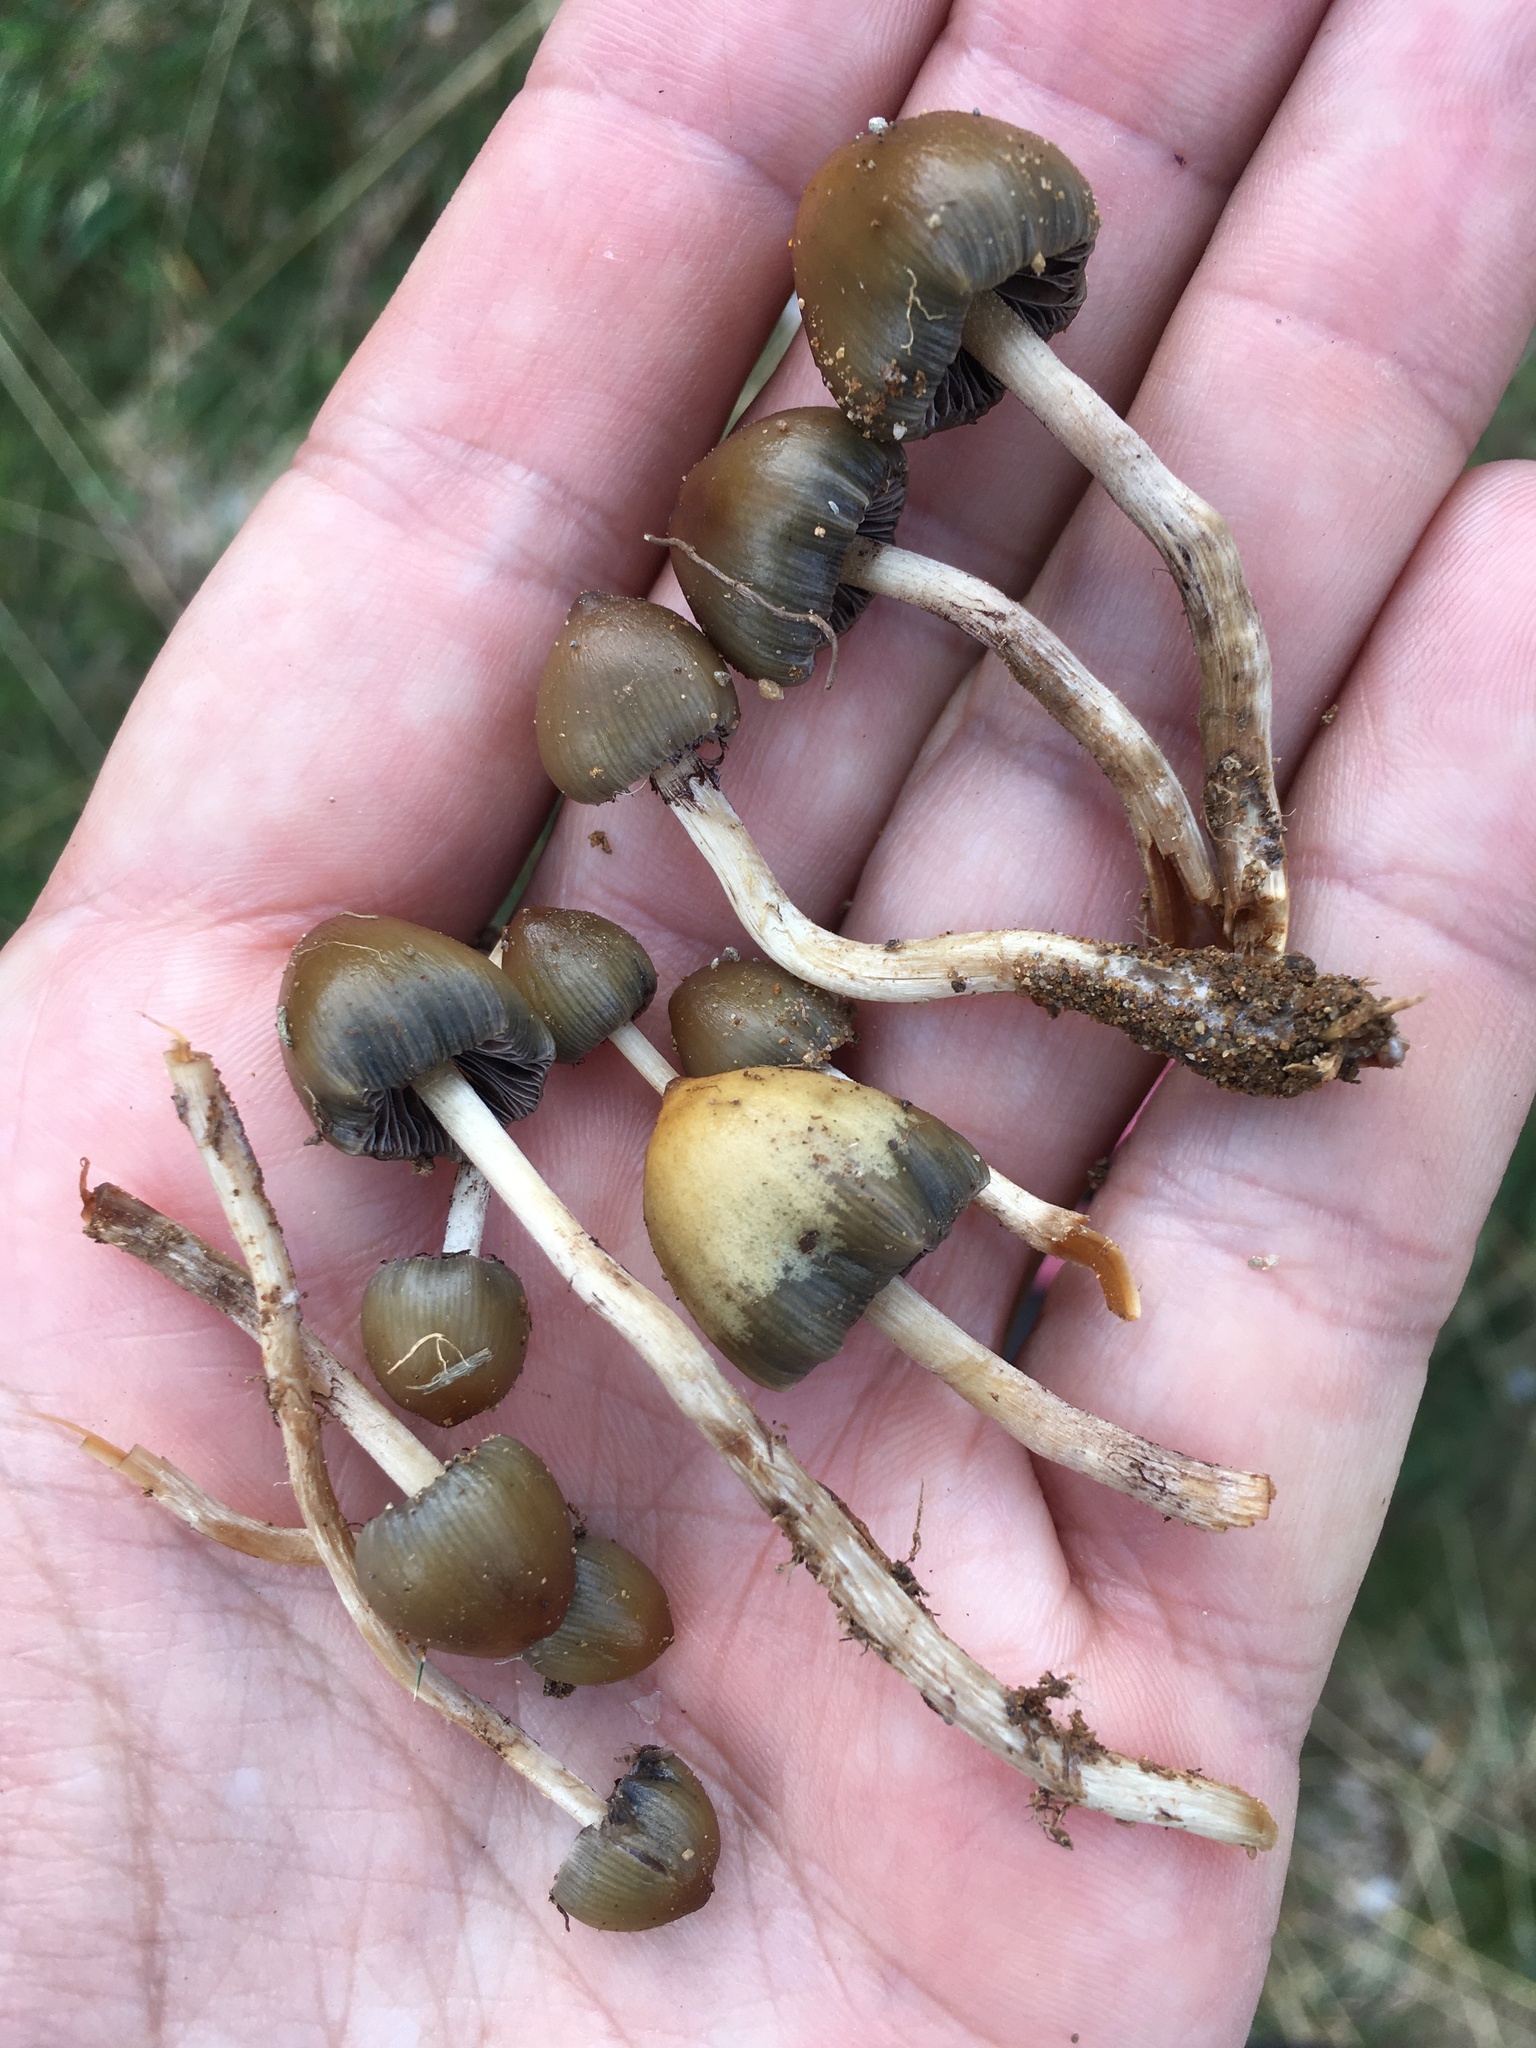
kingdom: Fungi
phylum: Basidiomycota
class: Agaricomycetes
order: Agaricales
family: Hymenogastraceae
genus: Psilocybe
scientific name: Psilocybe semilanceata
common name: Liberty cap
